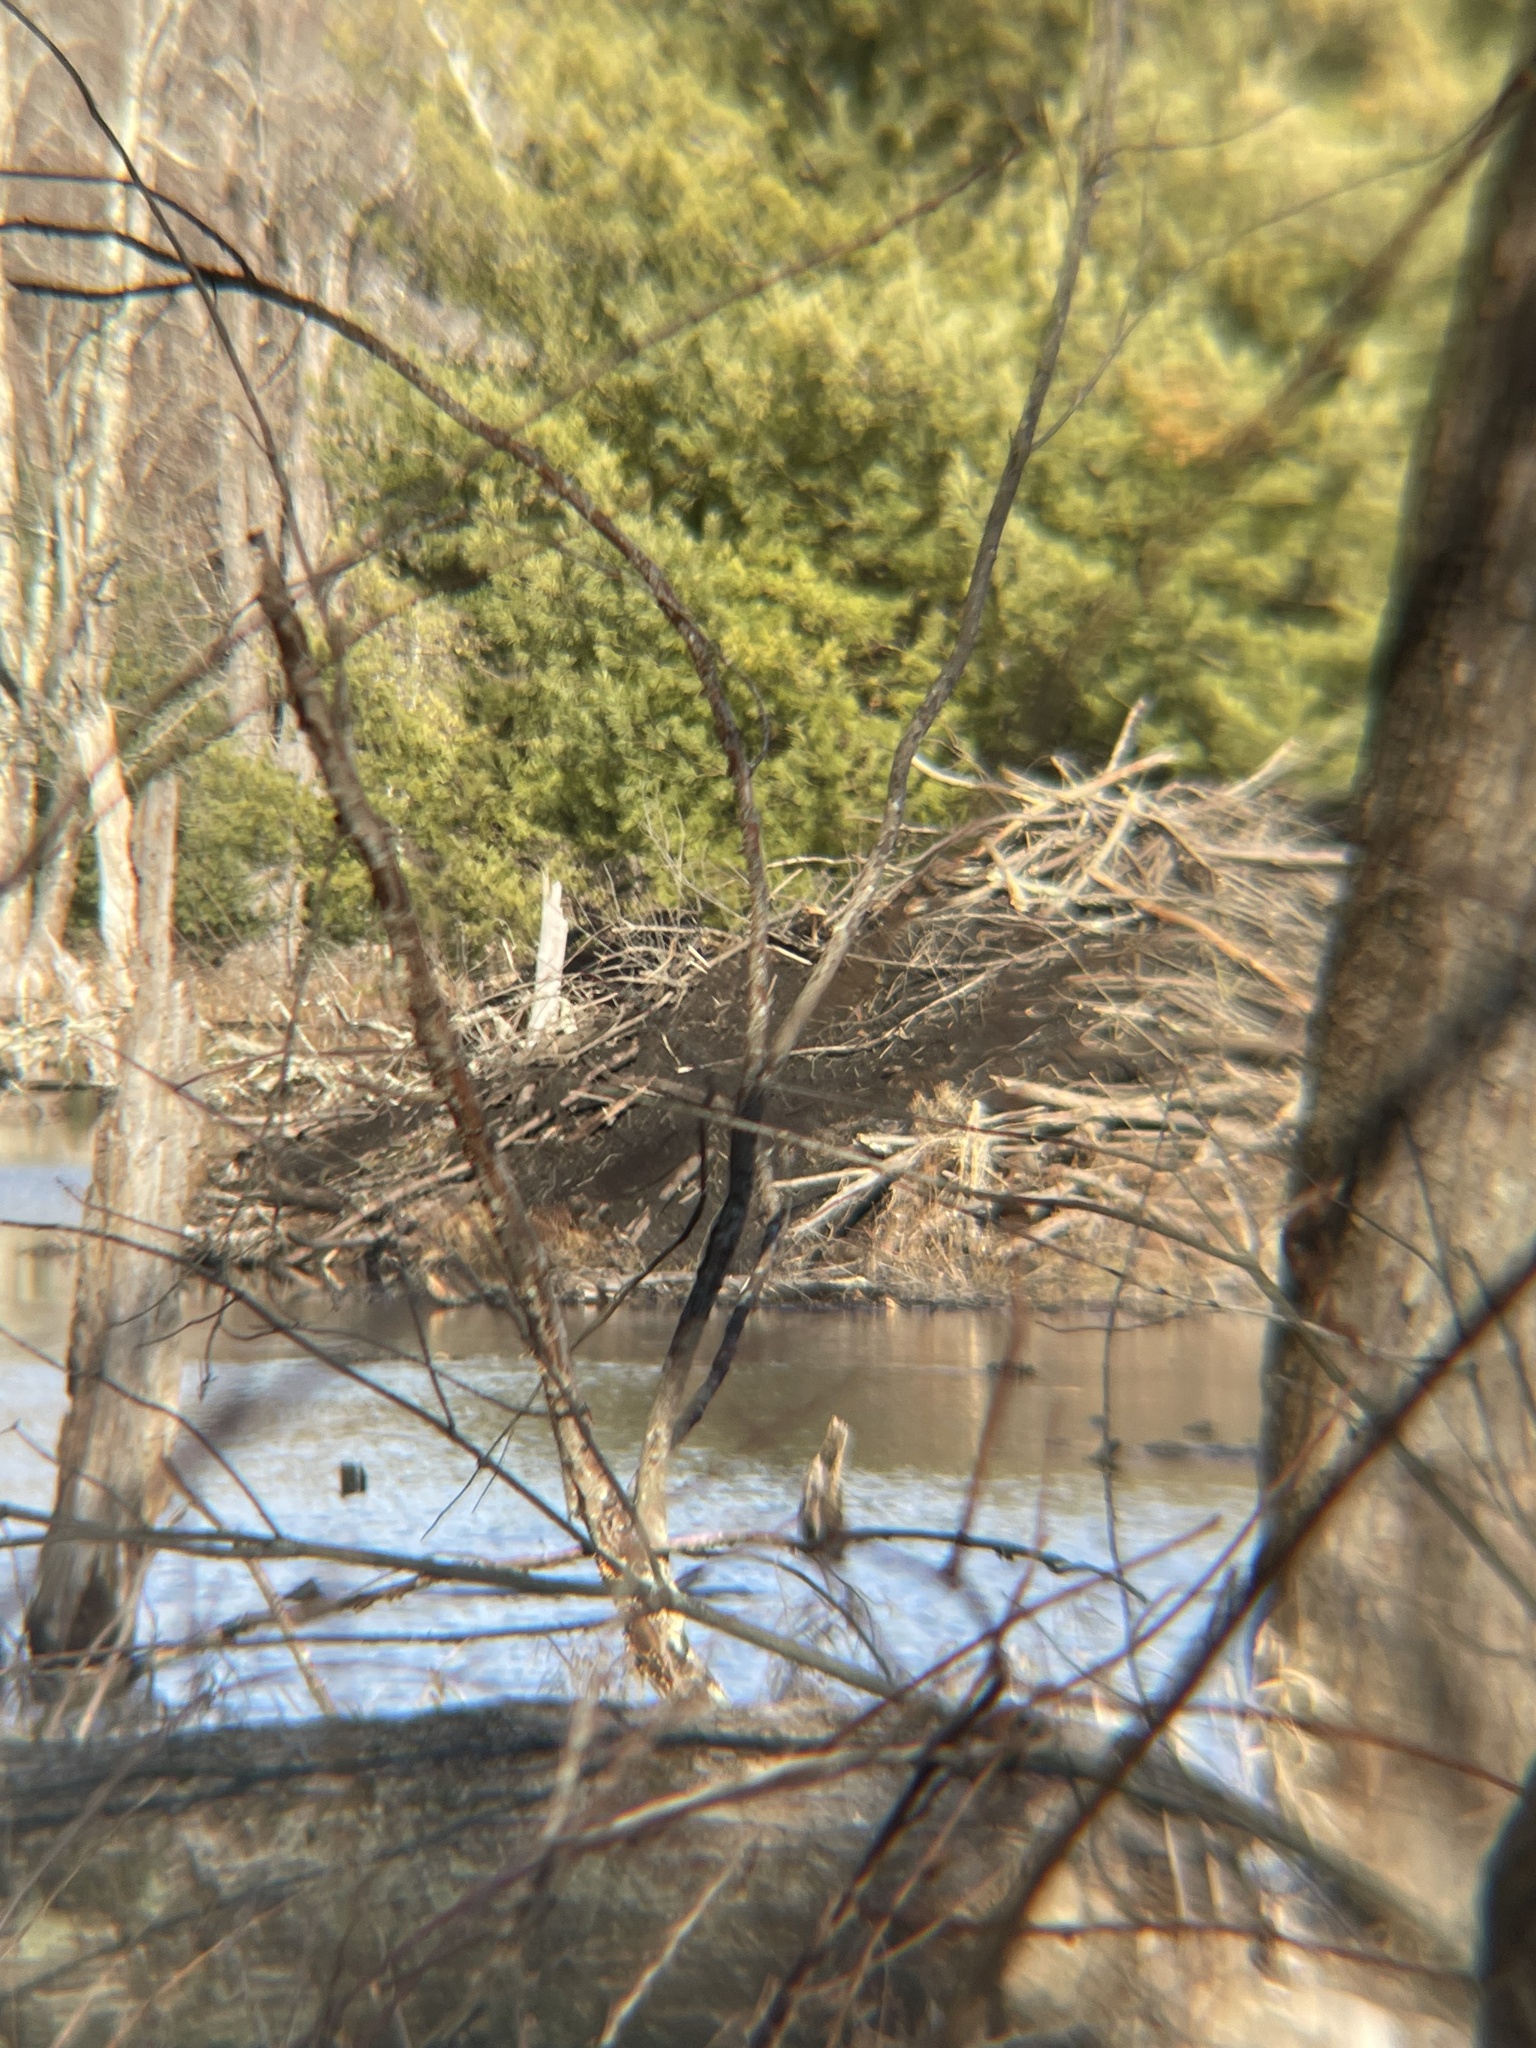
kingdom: Animalia
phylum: Chordata
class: Mammalia
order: Rodentia
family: Castoridae
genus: Castor
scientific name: Castor canadensis
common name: American beaver
